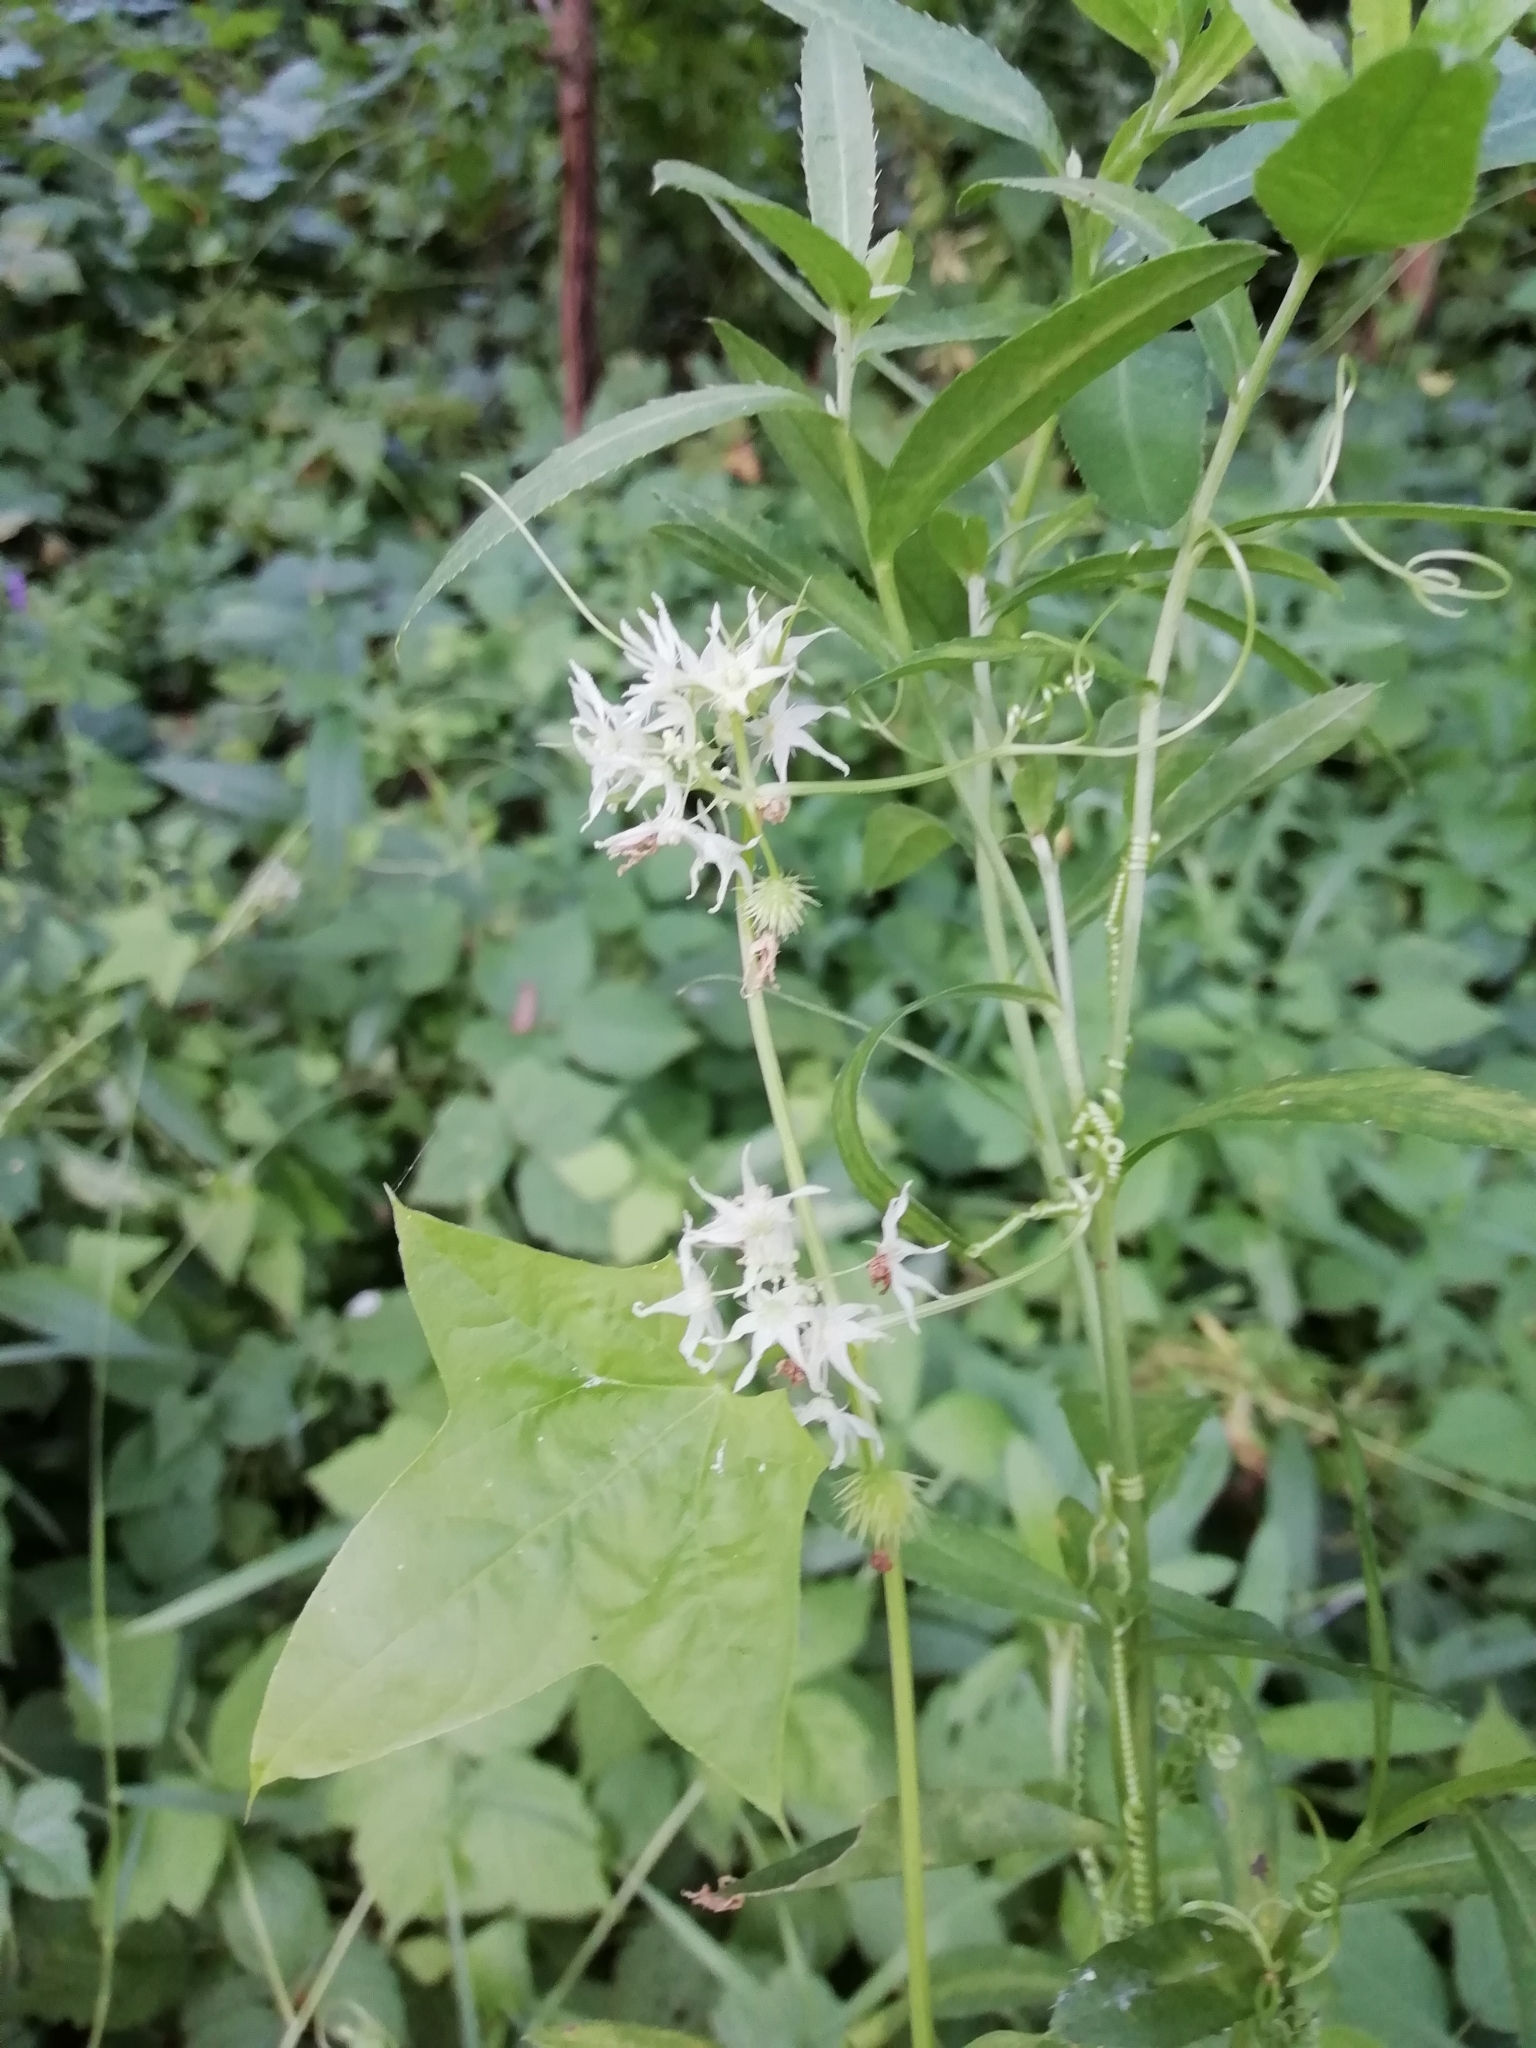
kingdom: Plantae
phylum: Tracheophyta
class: Magnoliopsida
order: Cucurbitales
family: Cucurbitaceae
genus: Echinocystis
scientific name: Echinocystis lobata
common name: Wild cucumber
